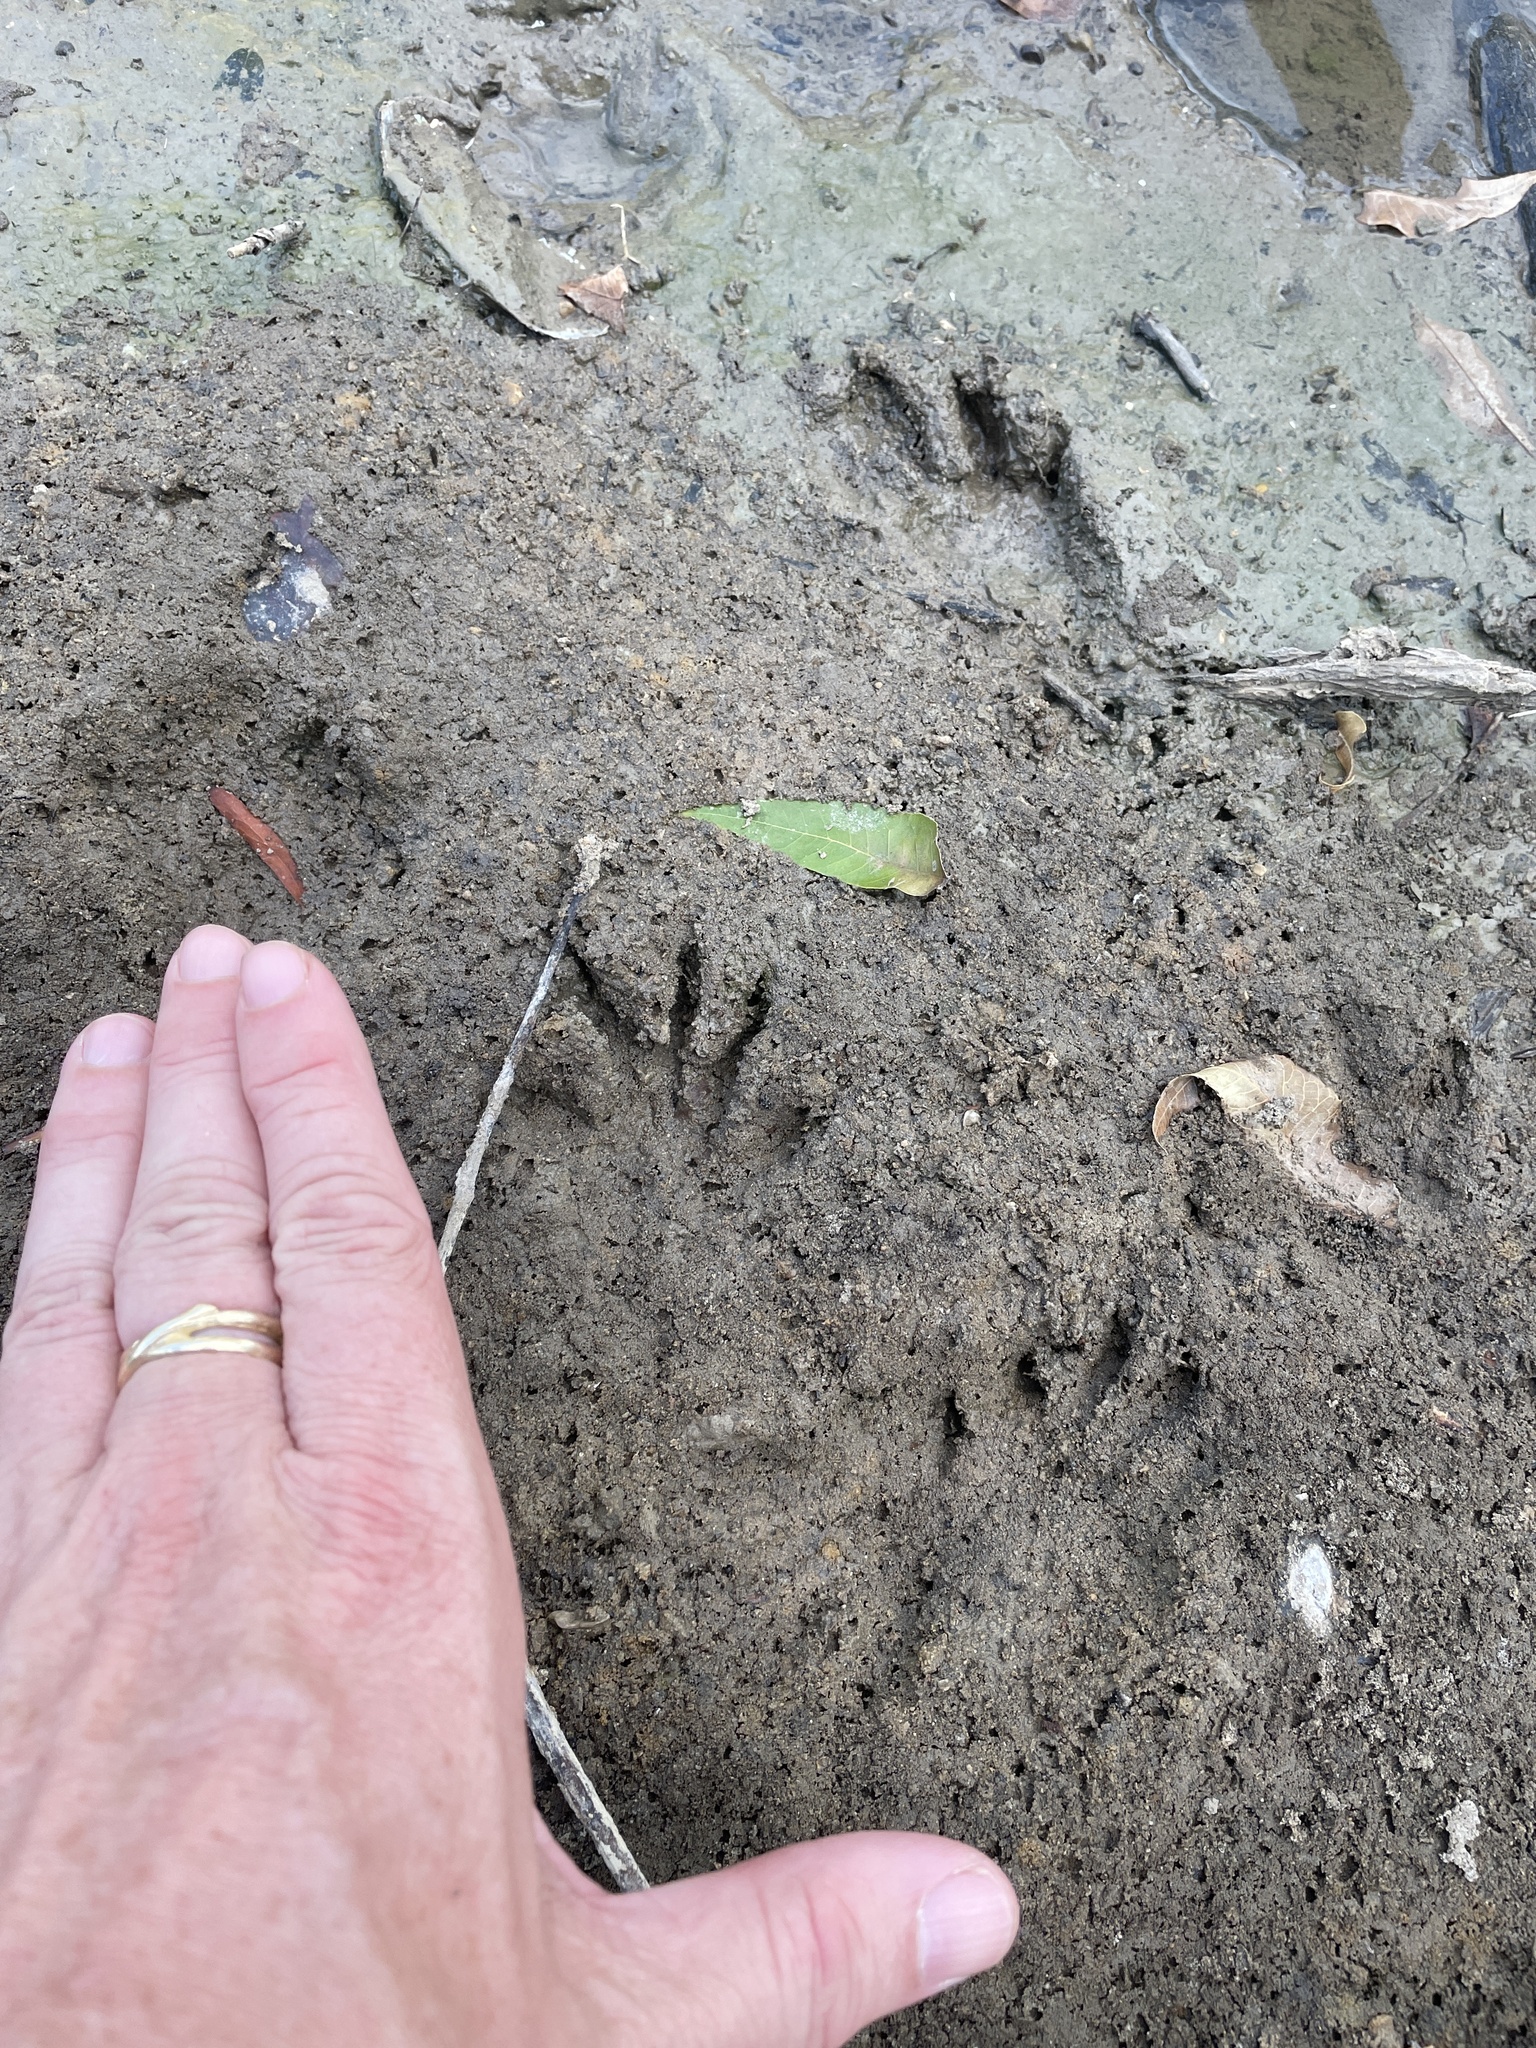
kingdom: Animalia
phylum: Chordata
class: Mammalia
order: Carnivora
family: Procyonidae
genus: Procyon
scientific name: Procyon lotor
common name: Raccoon
